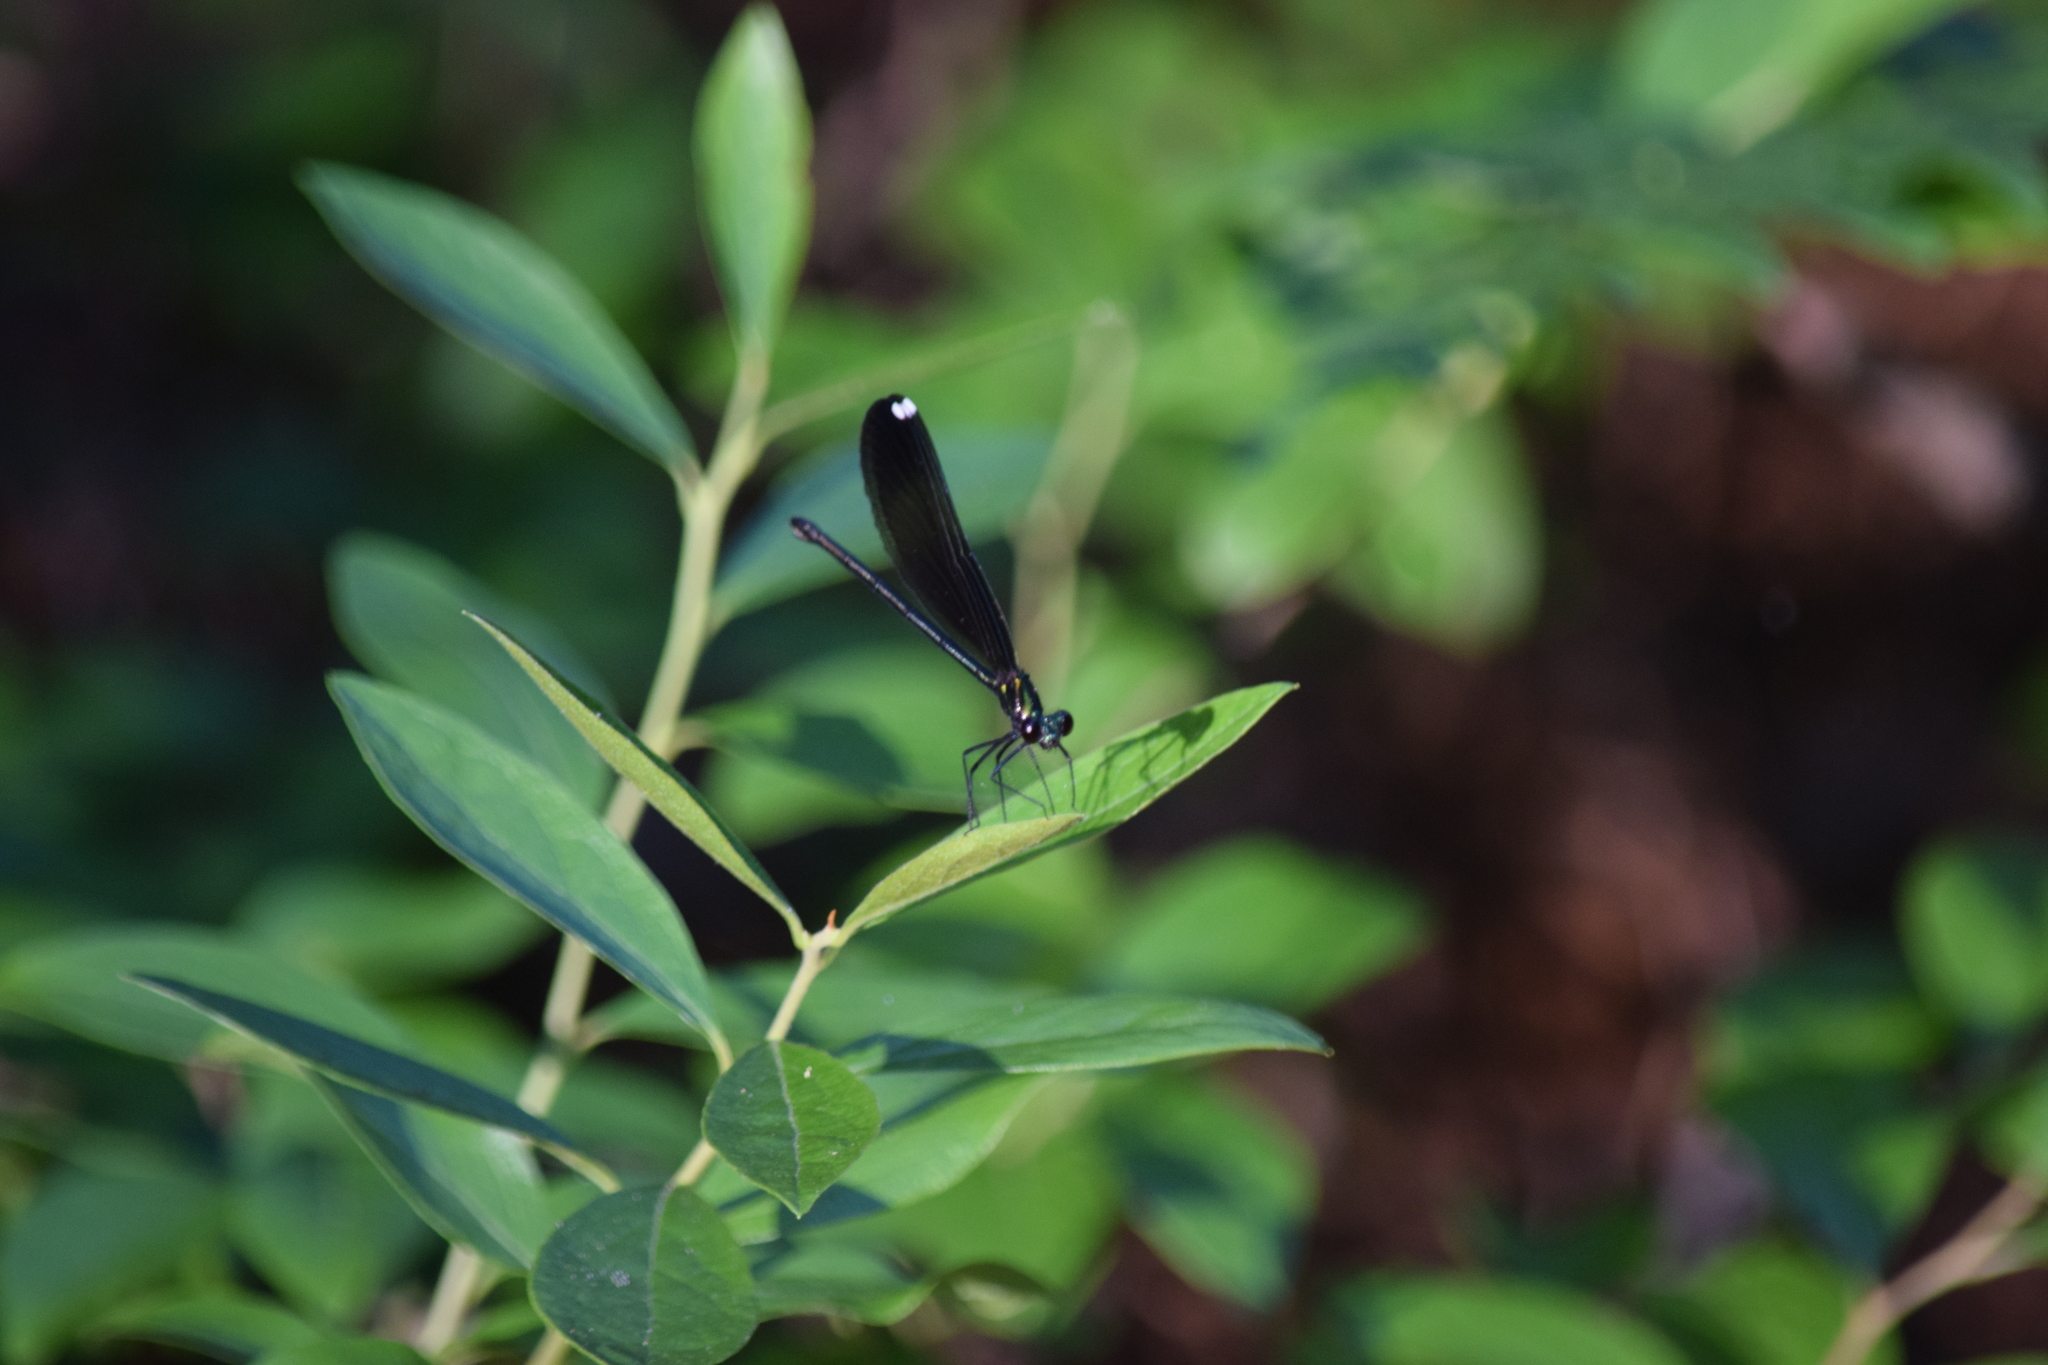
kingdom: Animalia
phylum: Arthropoda
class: Insecta
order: Odonata
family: Calopterygidae
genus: Calopteryx
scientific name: Calopteryx maculata
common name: Ebony jewelwing
